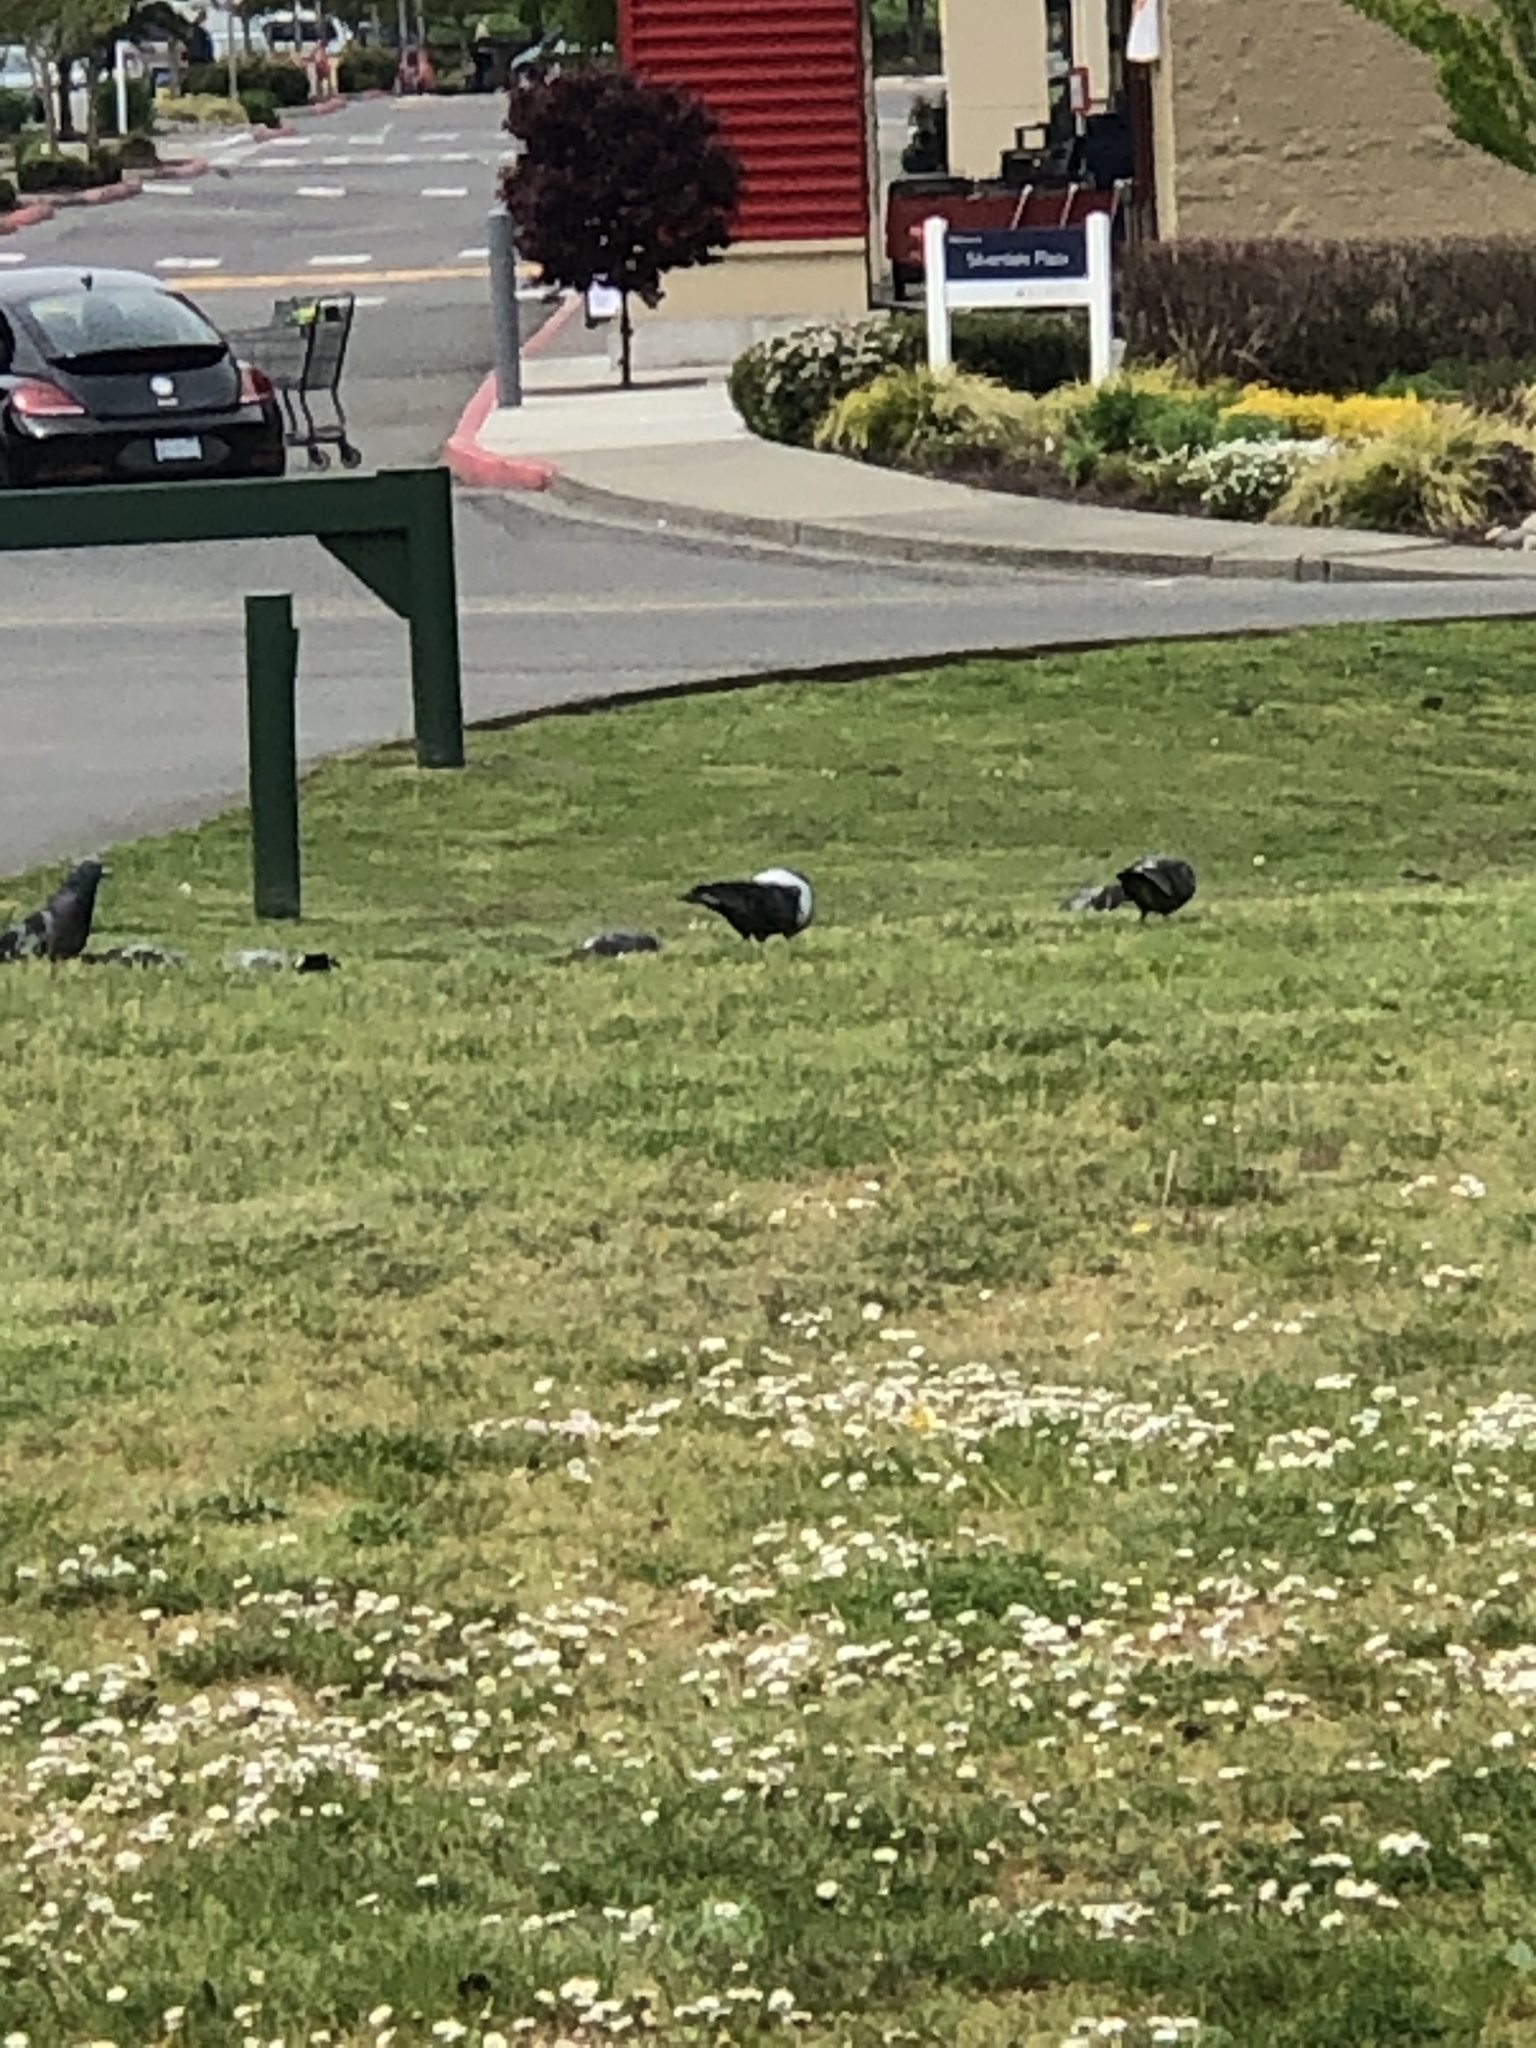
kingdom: Animalia
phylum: Chordata
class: Aves
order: Columbiformes
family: Columbidae
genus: Columba
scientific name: Columba livia
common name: Rock pigeon
